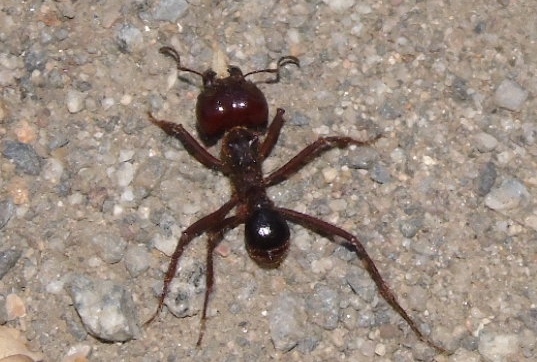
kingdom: Animalia
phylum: Arthropoda
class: Insecta
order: Hymenoptera
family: Formicidae
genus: Atta
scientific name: Atta mexicana
